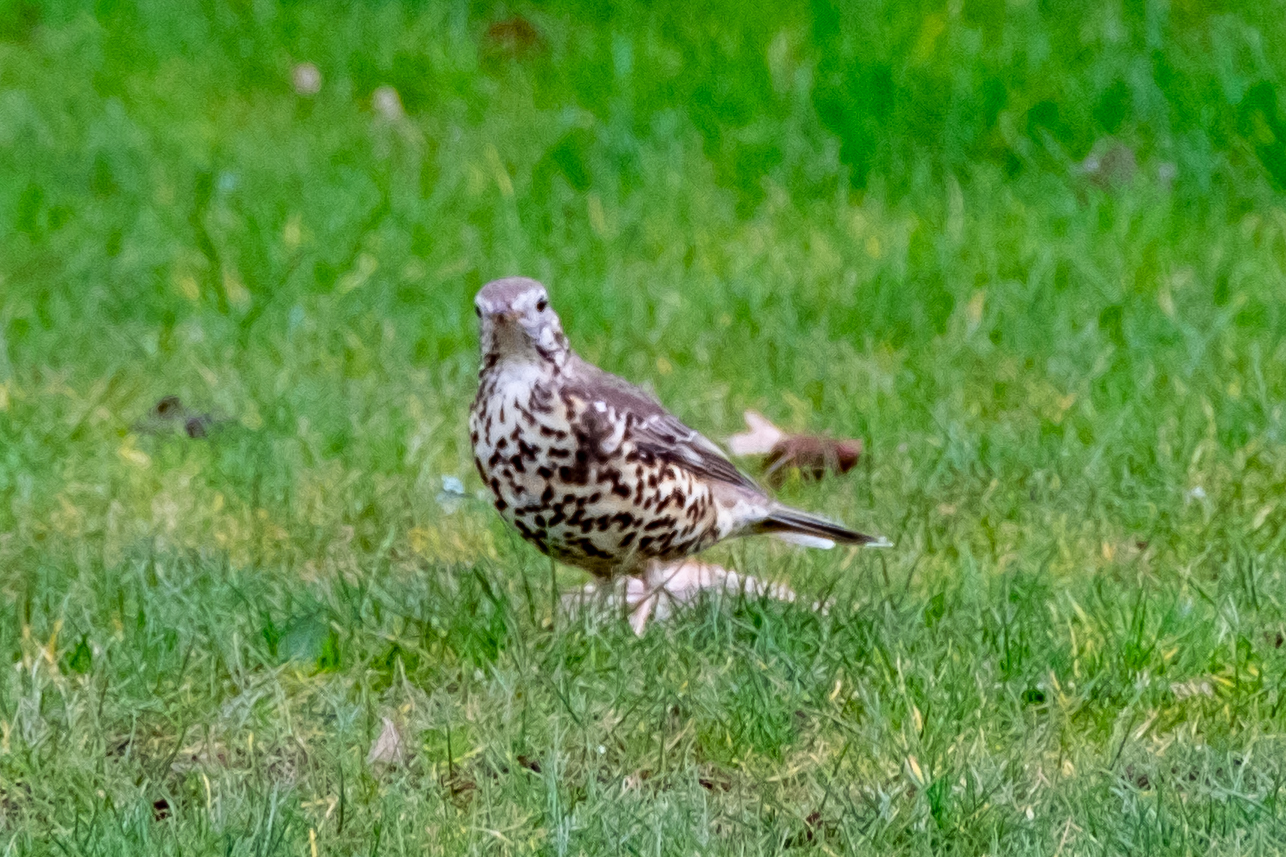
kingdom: Animalia
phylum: Chordata
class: Aves
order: Passeriformes
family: Turdidae
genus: Turdus
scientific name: Turdus viscivorus
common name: Mistle thrush
